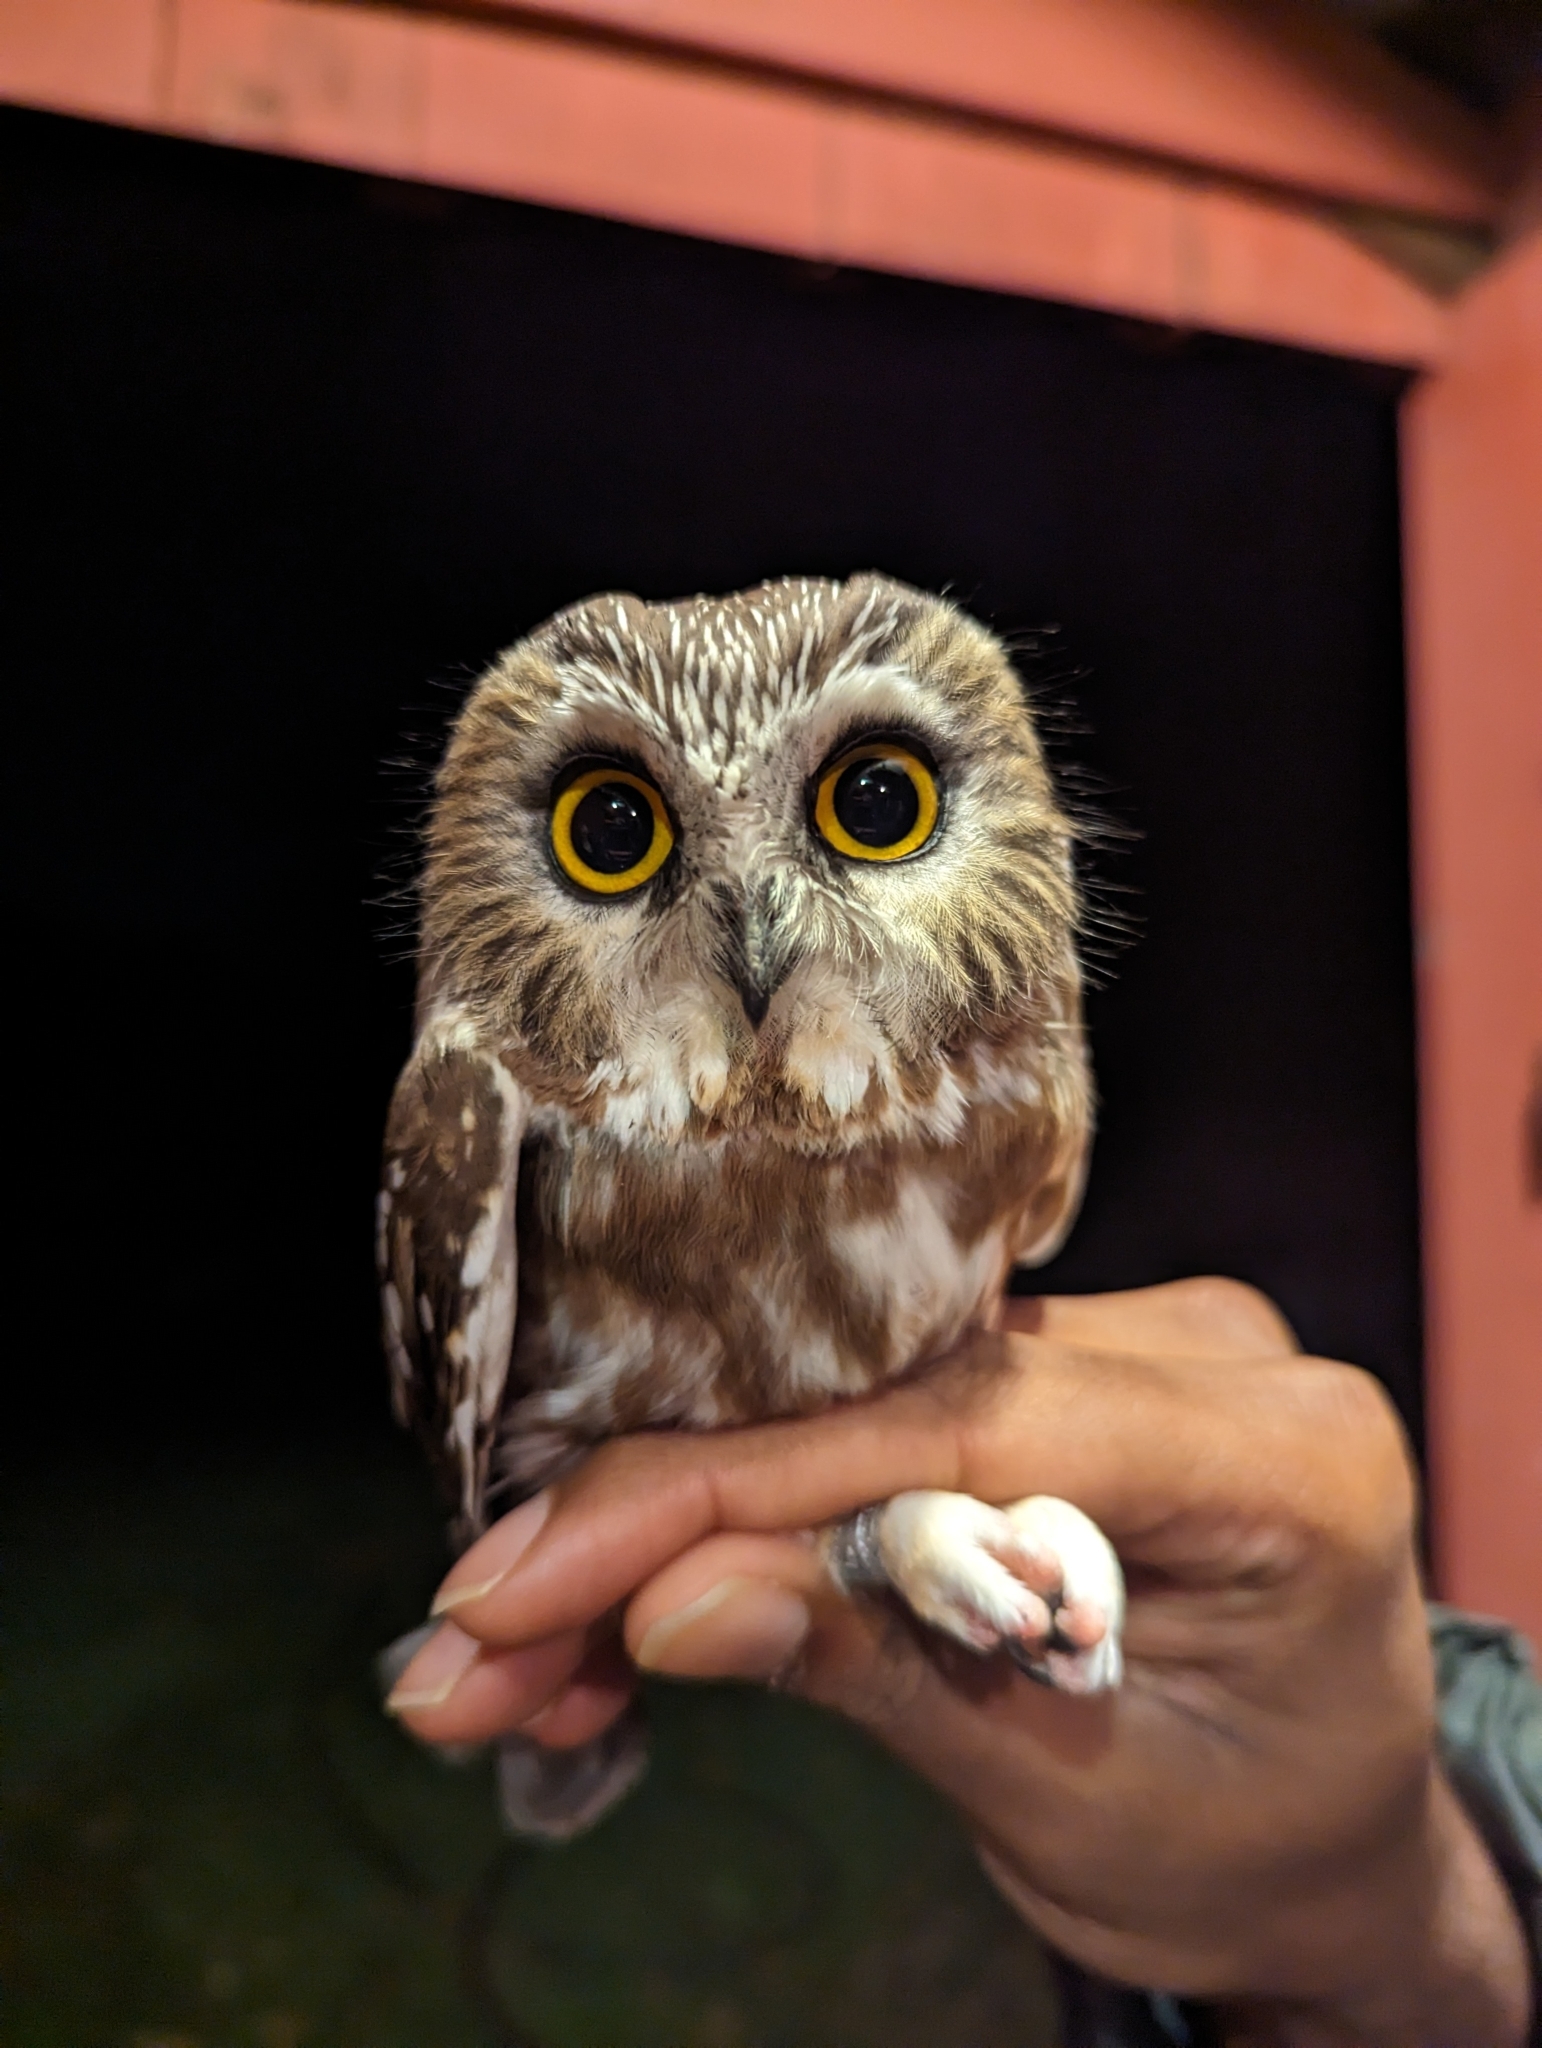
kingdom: Animalia
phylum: Chordata
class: Aves
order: Strigiformes
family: Strigidae
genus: Aegolius
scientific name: Aegolius acadicus
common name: Northern saw-whet owl
